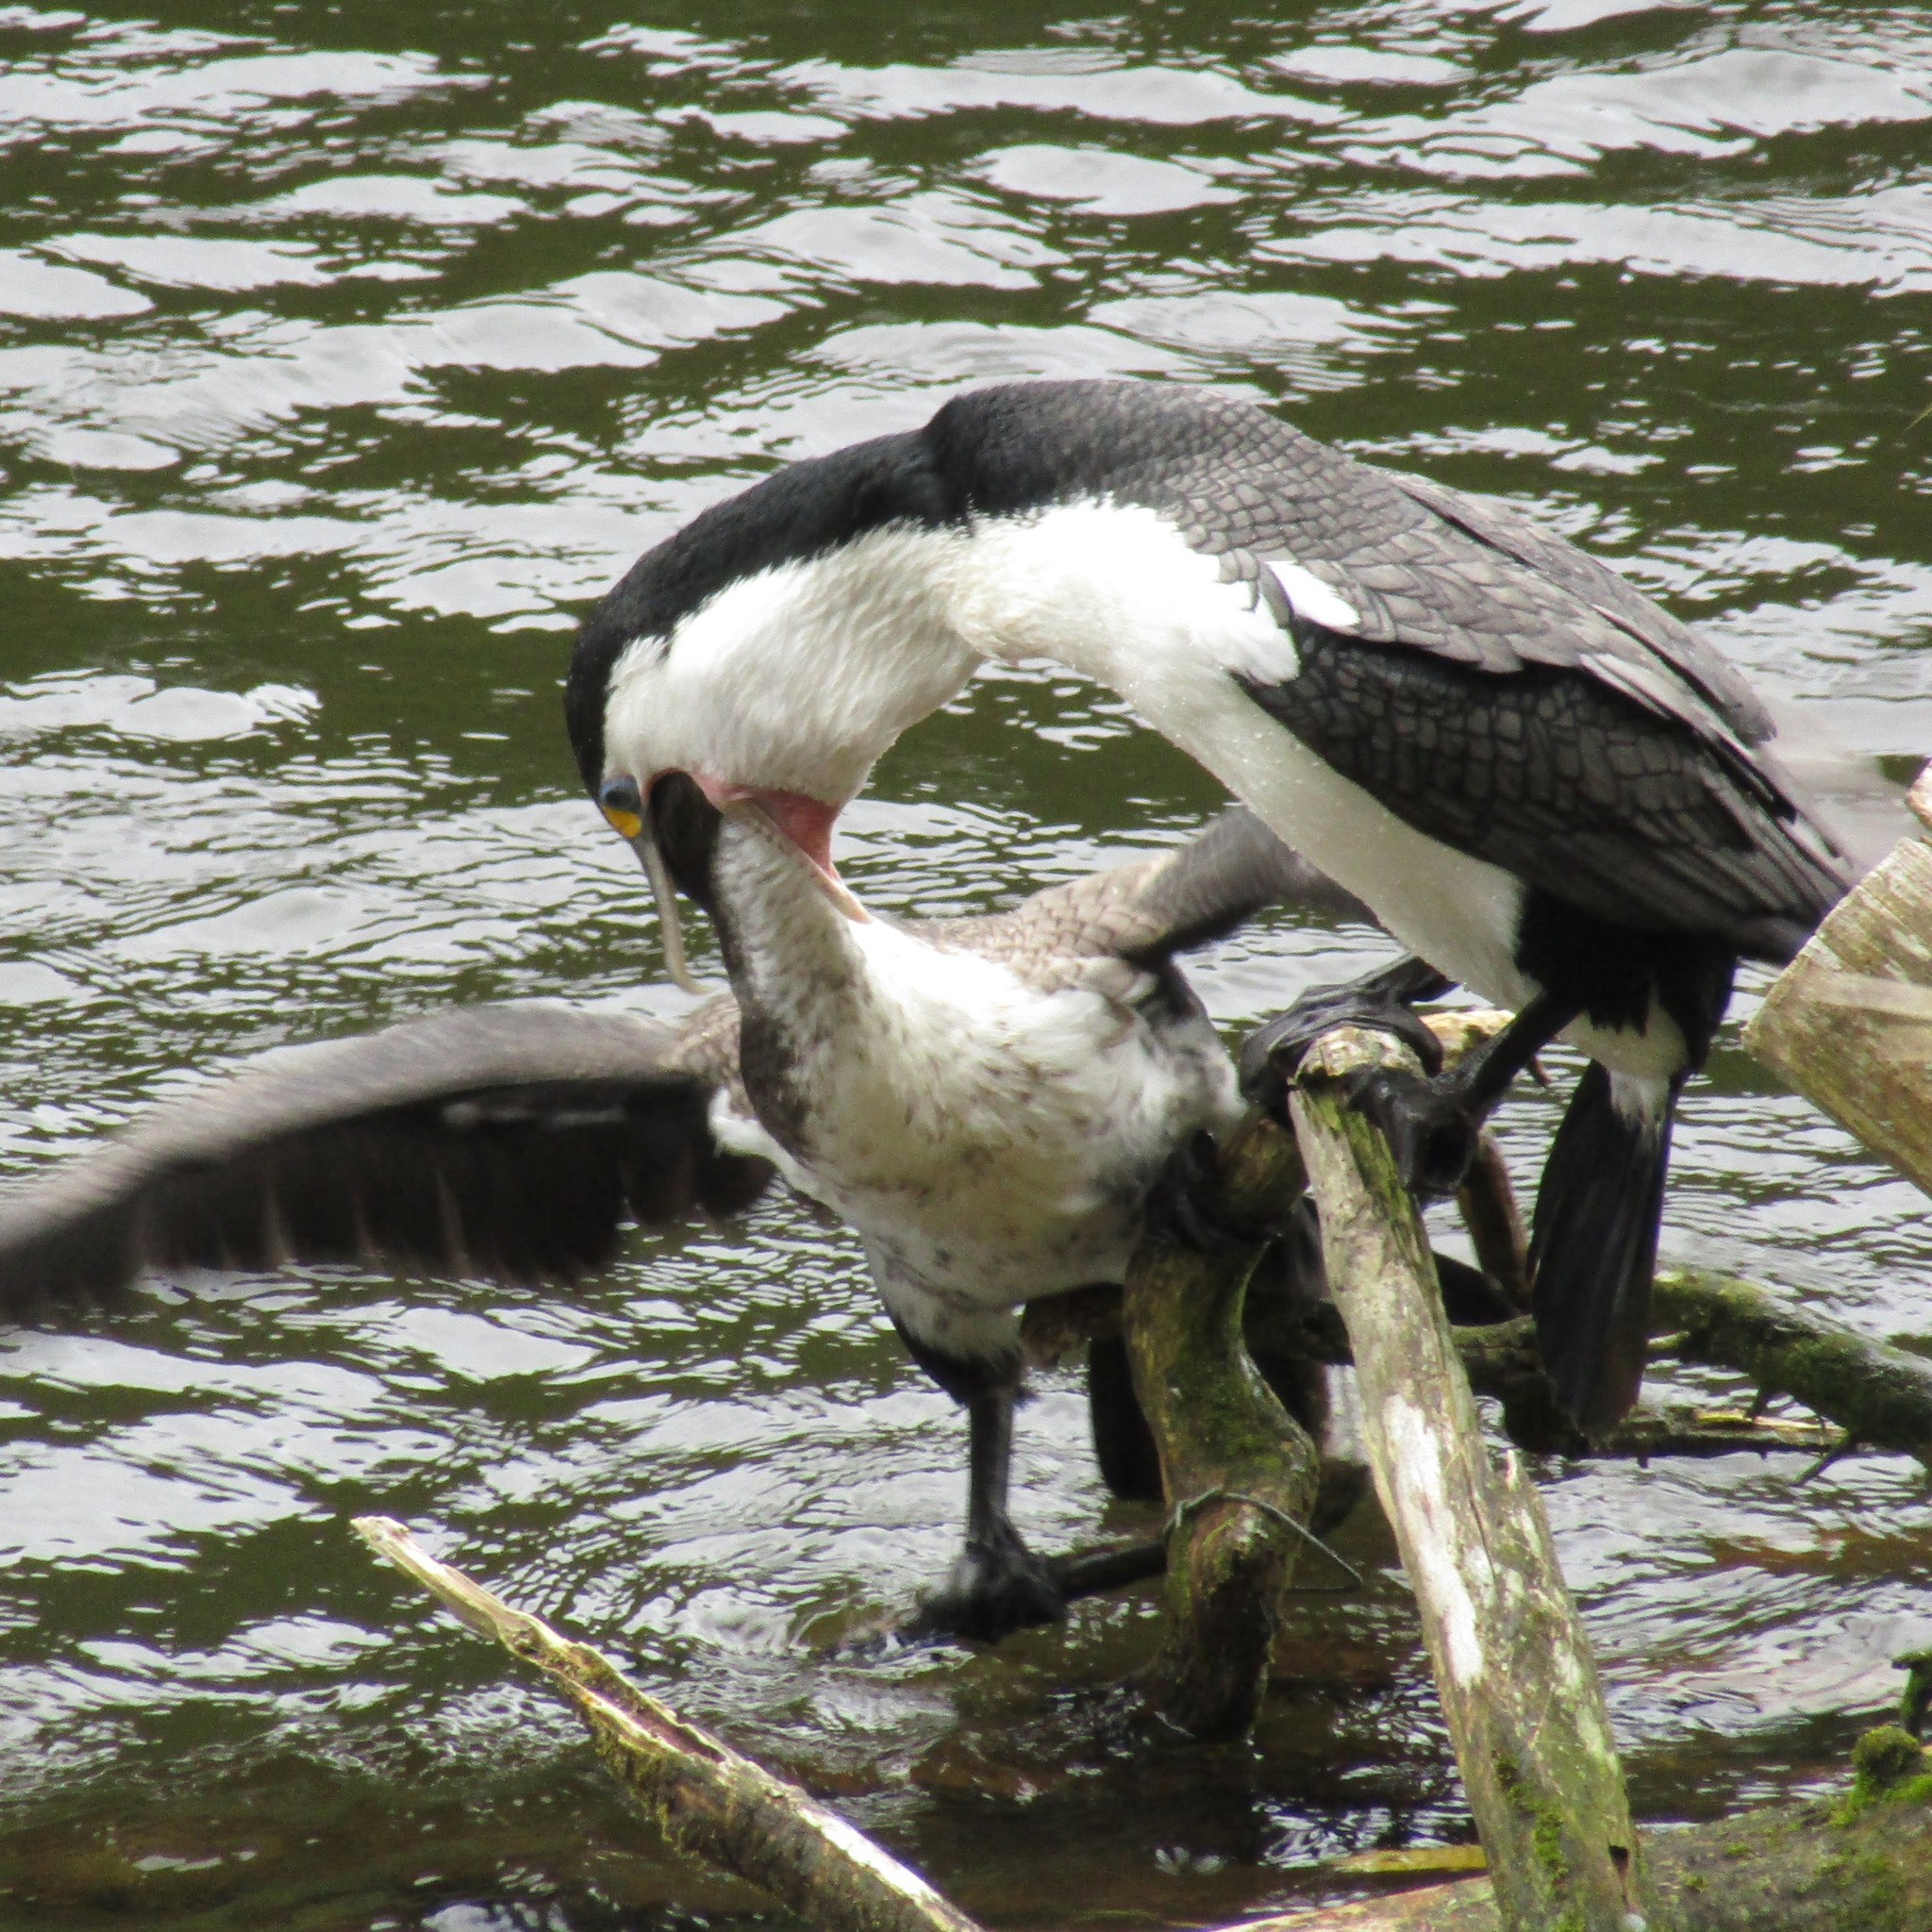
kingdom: Animalia
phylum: Chordata
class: Aves
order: Suliformes
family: Phalacrocoracidae
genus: Phalacrocorax
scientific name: Phalacrocorax varius
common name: Pied cormorant
